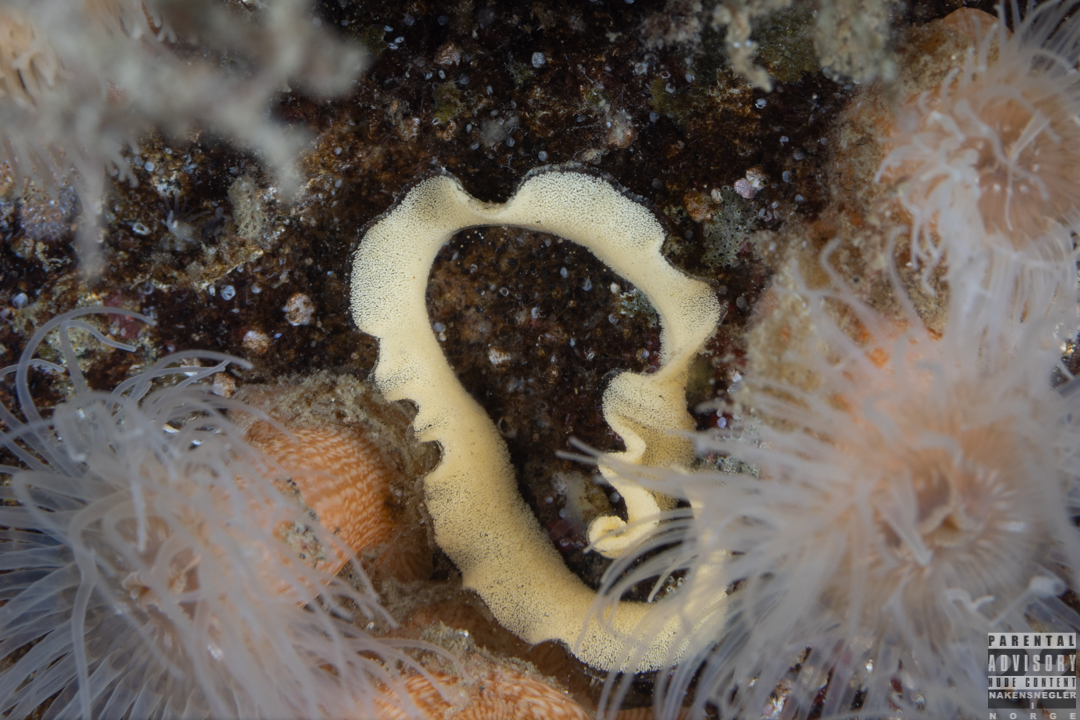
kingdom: Animalia
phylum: Mollusca
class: Gastropoda
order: Nudibranchia
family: Discodorididae
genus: Jorunna
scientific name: Jorunna tomentosa
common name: Grey sea slug
